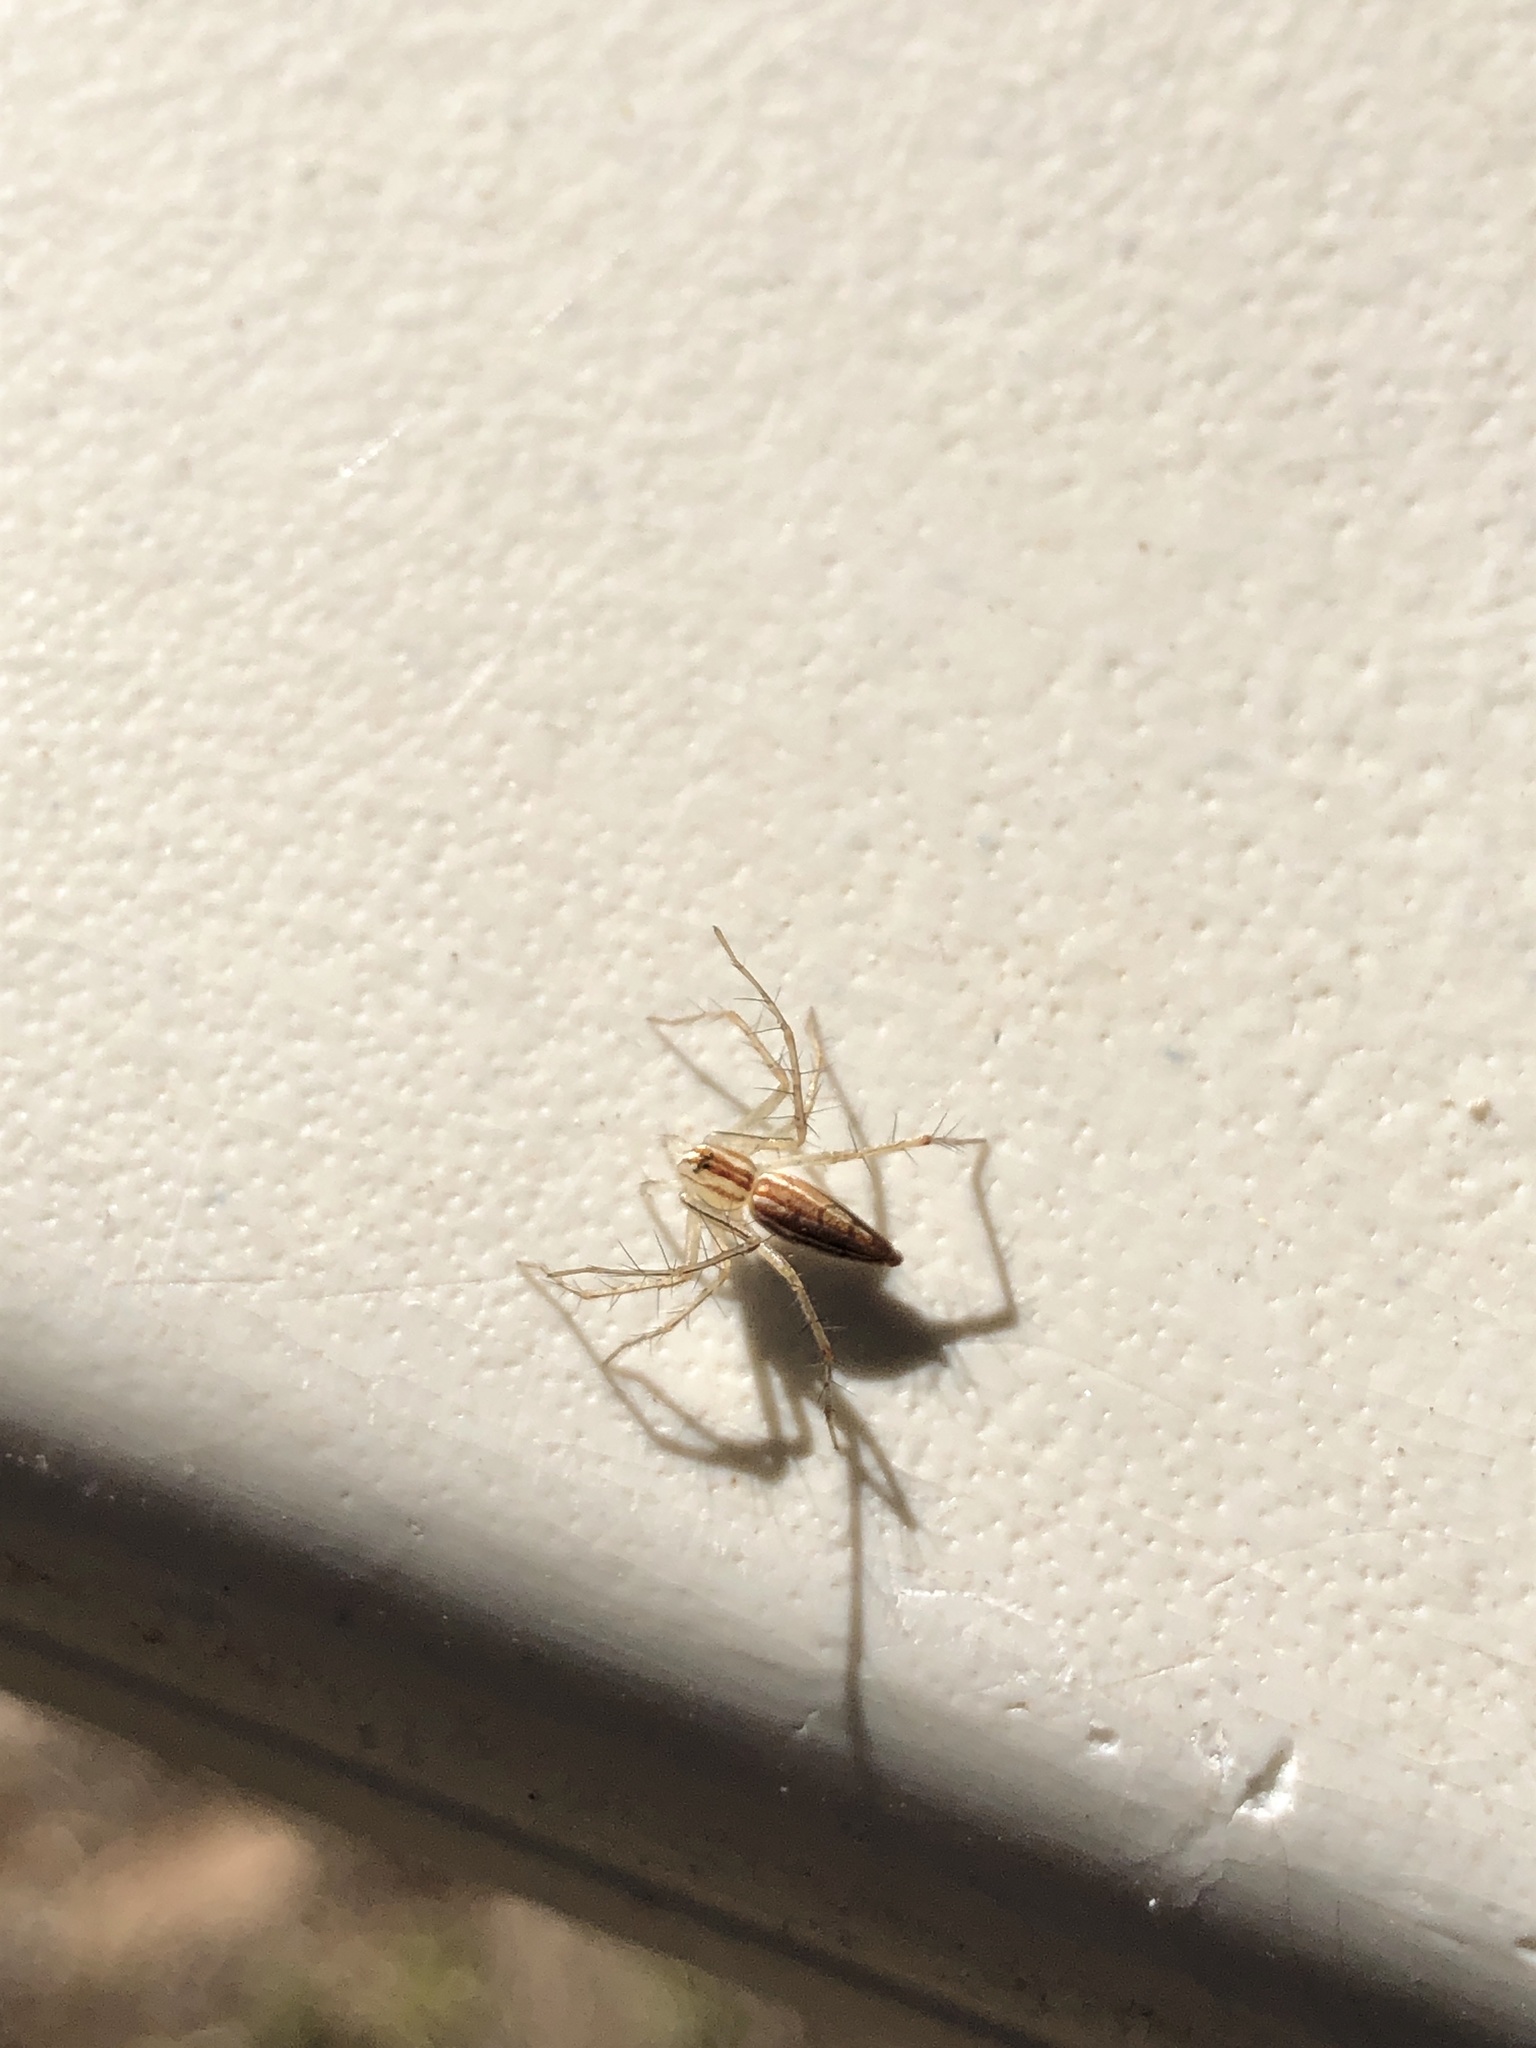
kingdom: Animalia
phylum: Arthropoda
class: Arachnida
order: Araneae
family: Oxyopidae
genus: Oxyopes
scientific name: Oxyopes macilentus
